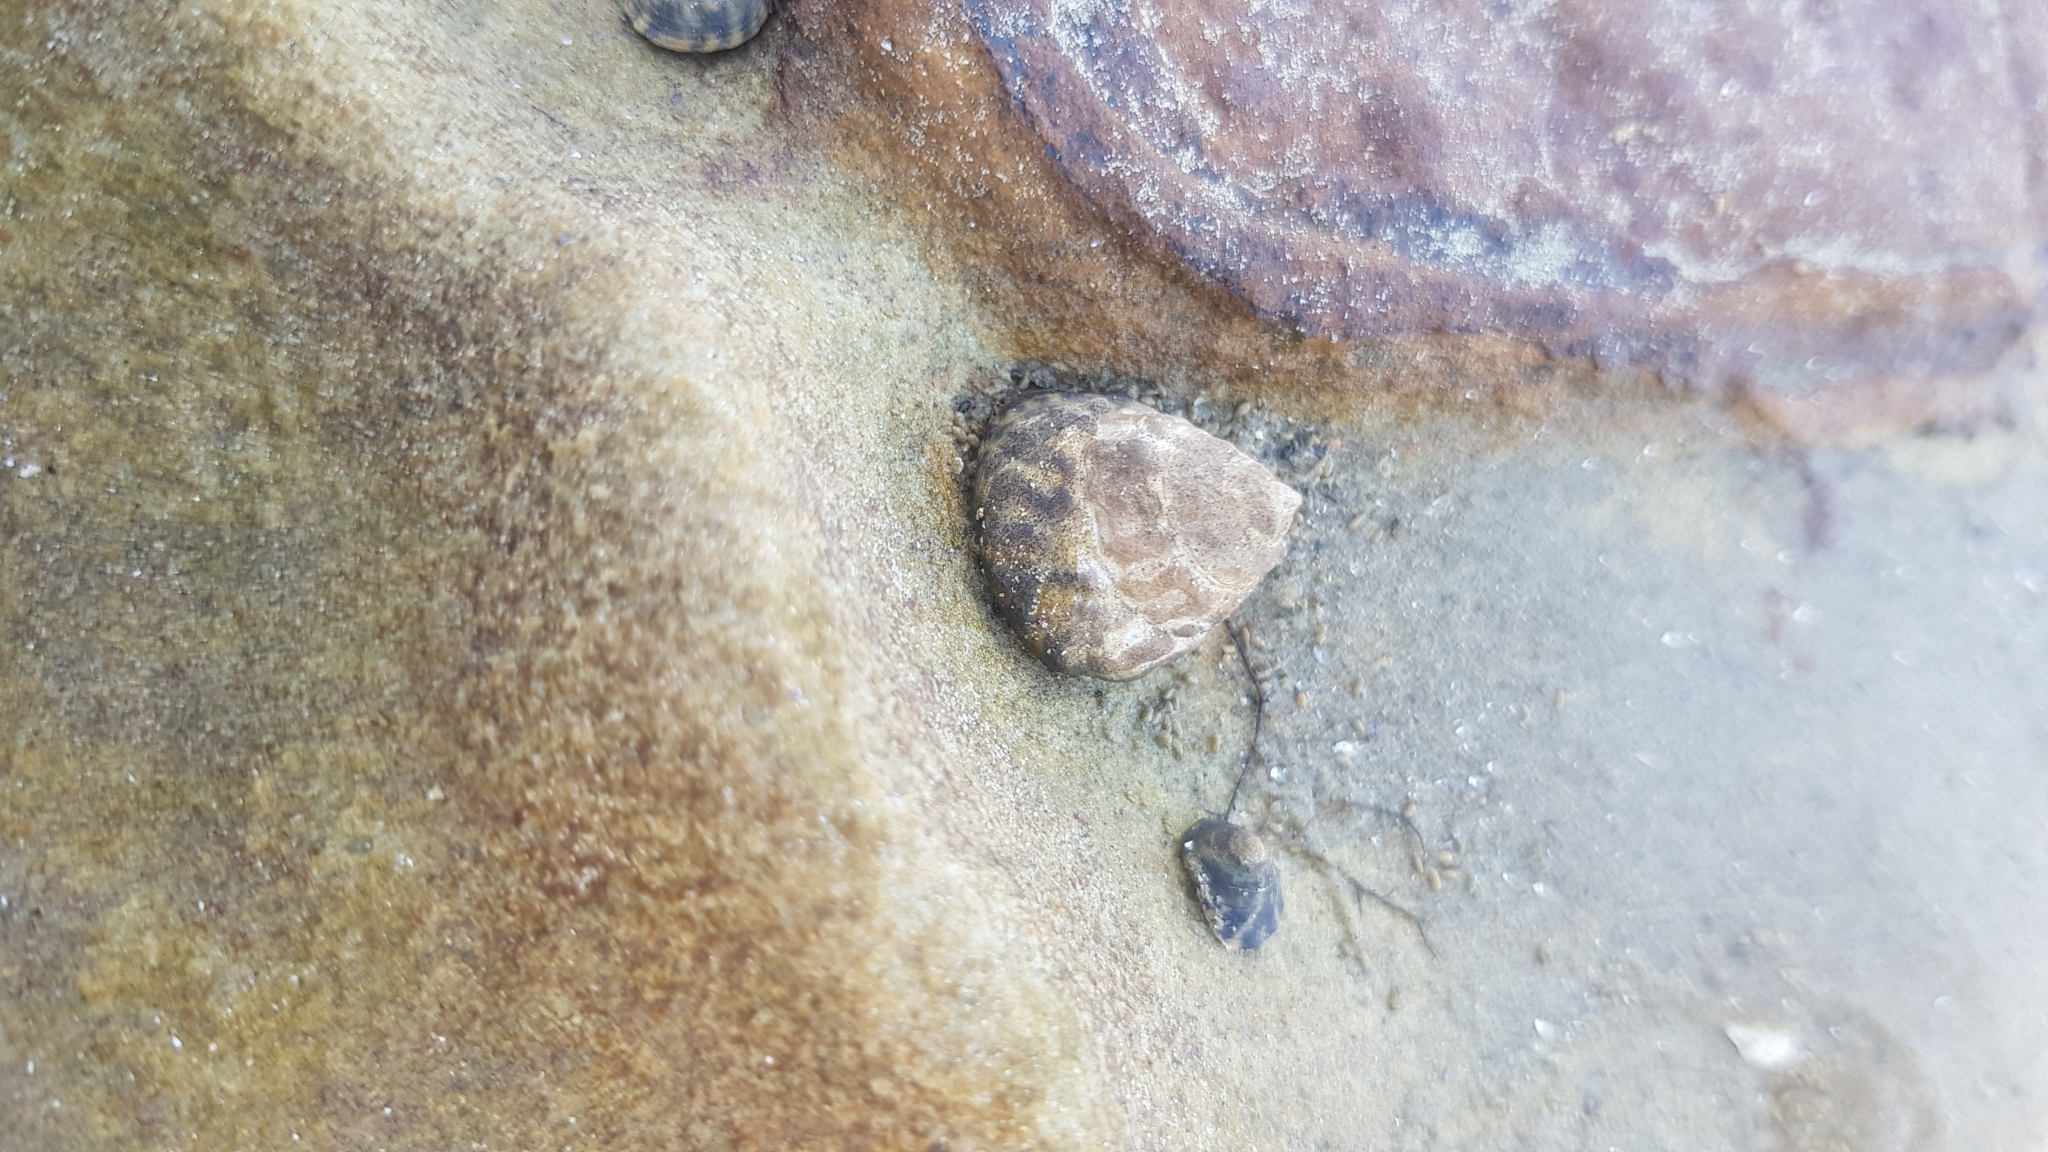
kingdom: Animalia
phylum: Mollusca
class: Gastropoda
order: Littorinimorpha
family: Littorinidae
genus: Bembicium
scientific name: Bembicium auratum
